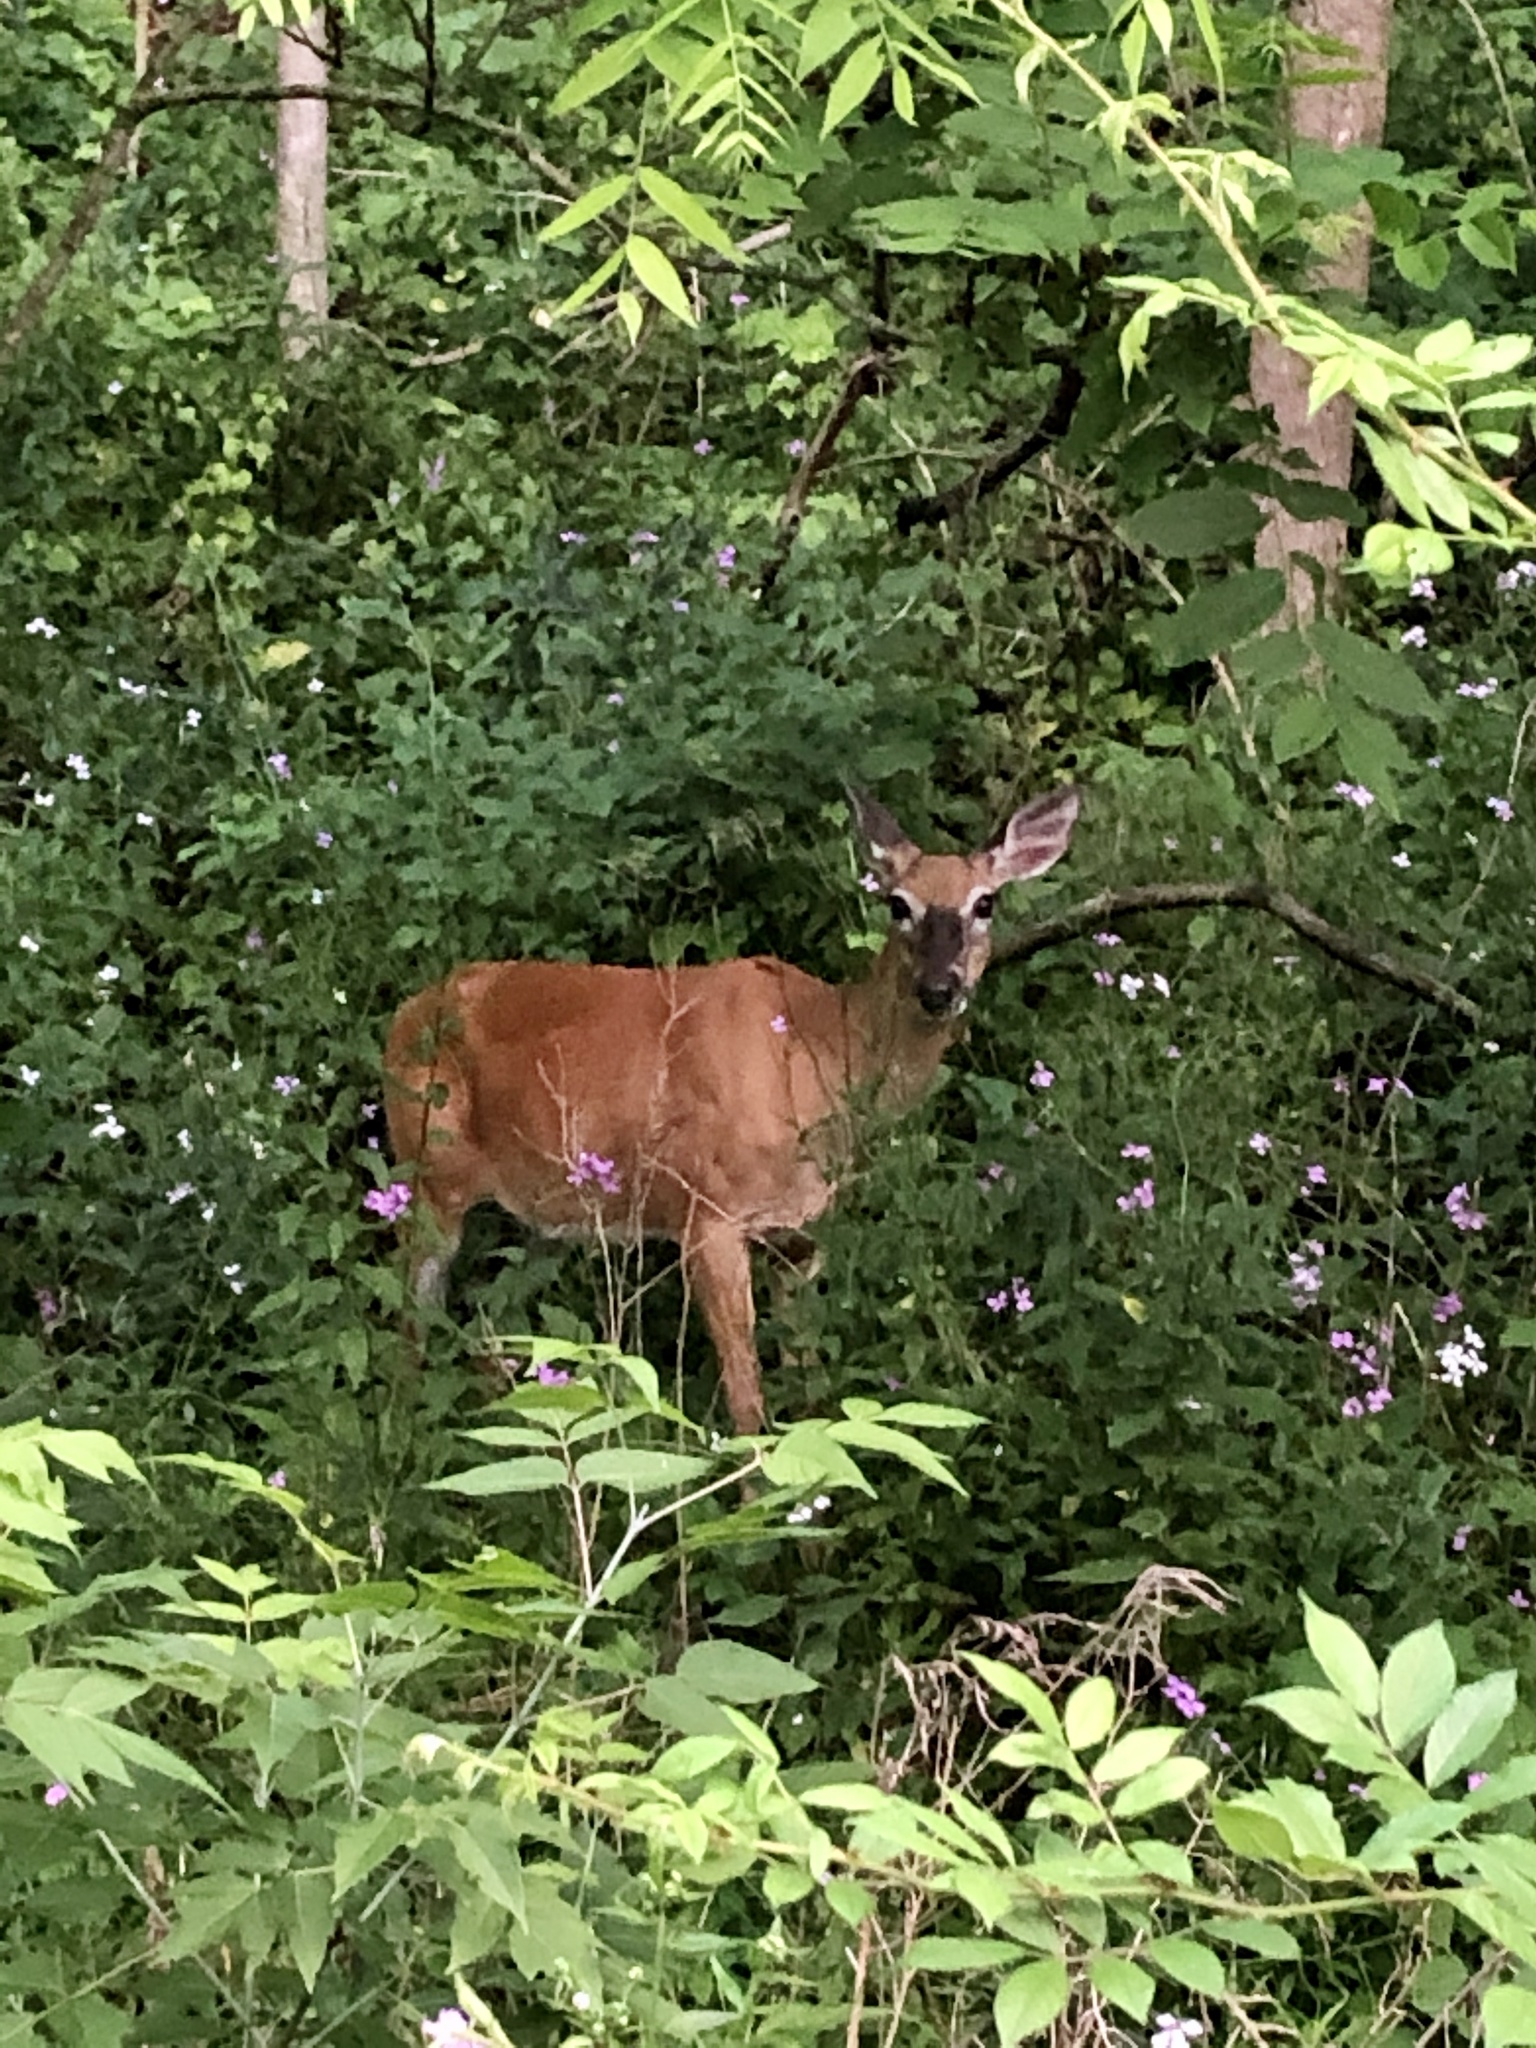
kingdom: Animalia
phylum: Chordata
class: Mammalia
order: Artiodactyla
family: Cervidae
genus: Odocoileus
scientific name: Odocoileus virginianus
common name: White-tailed deer
